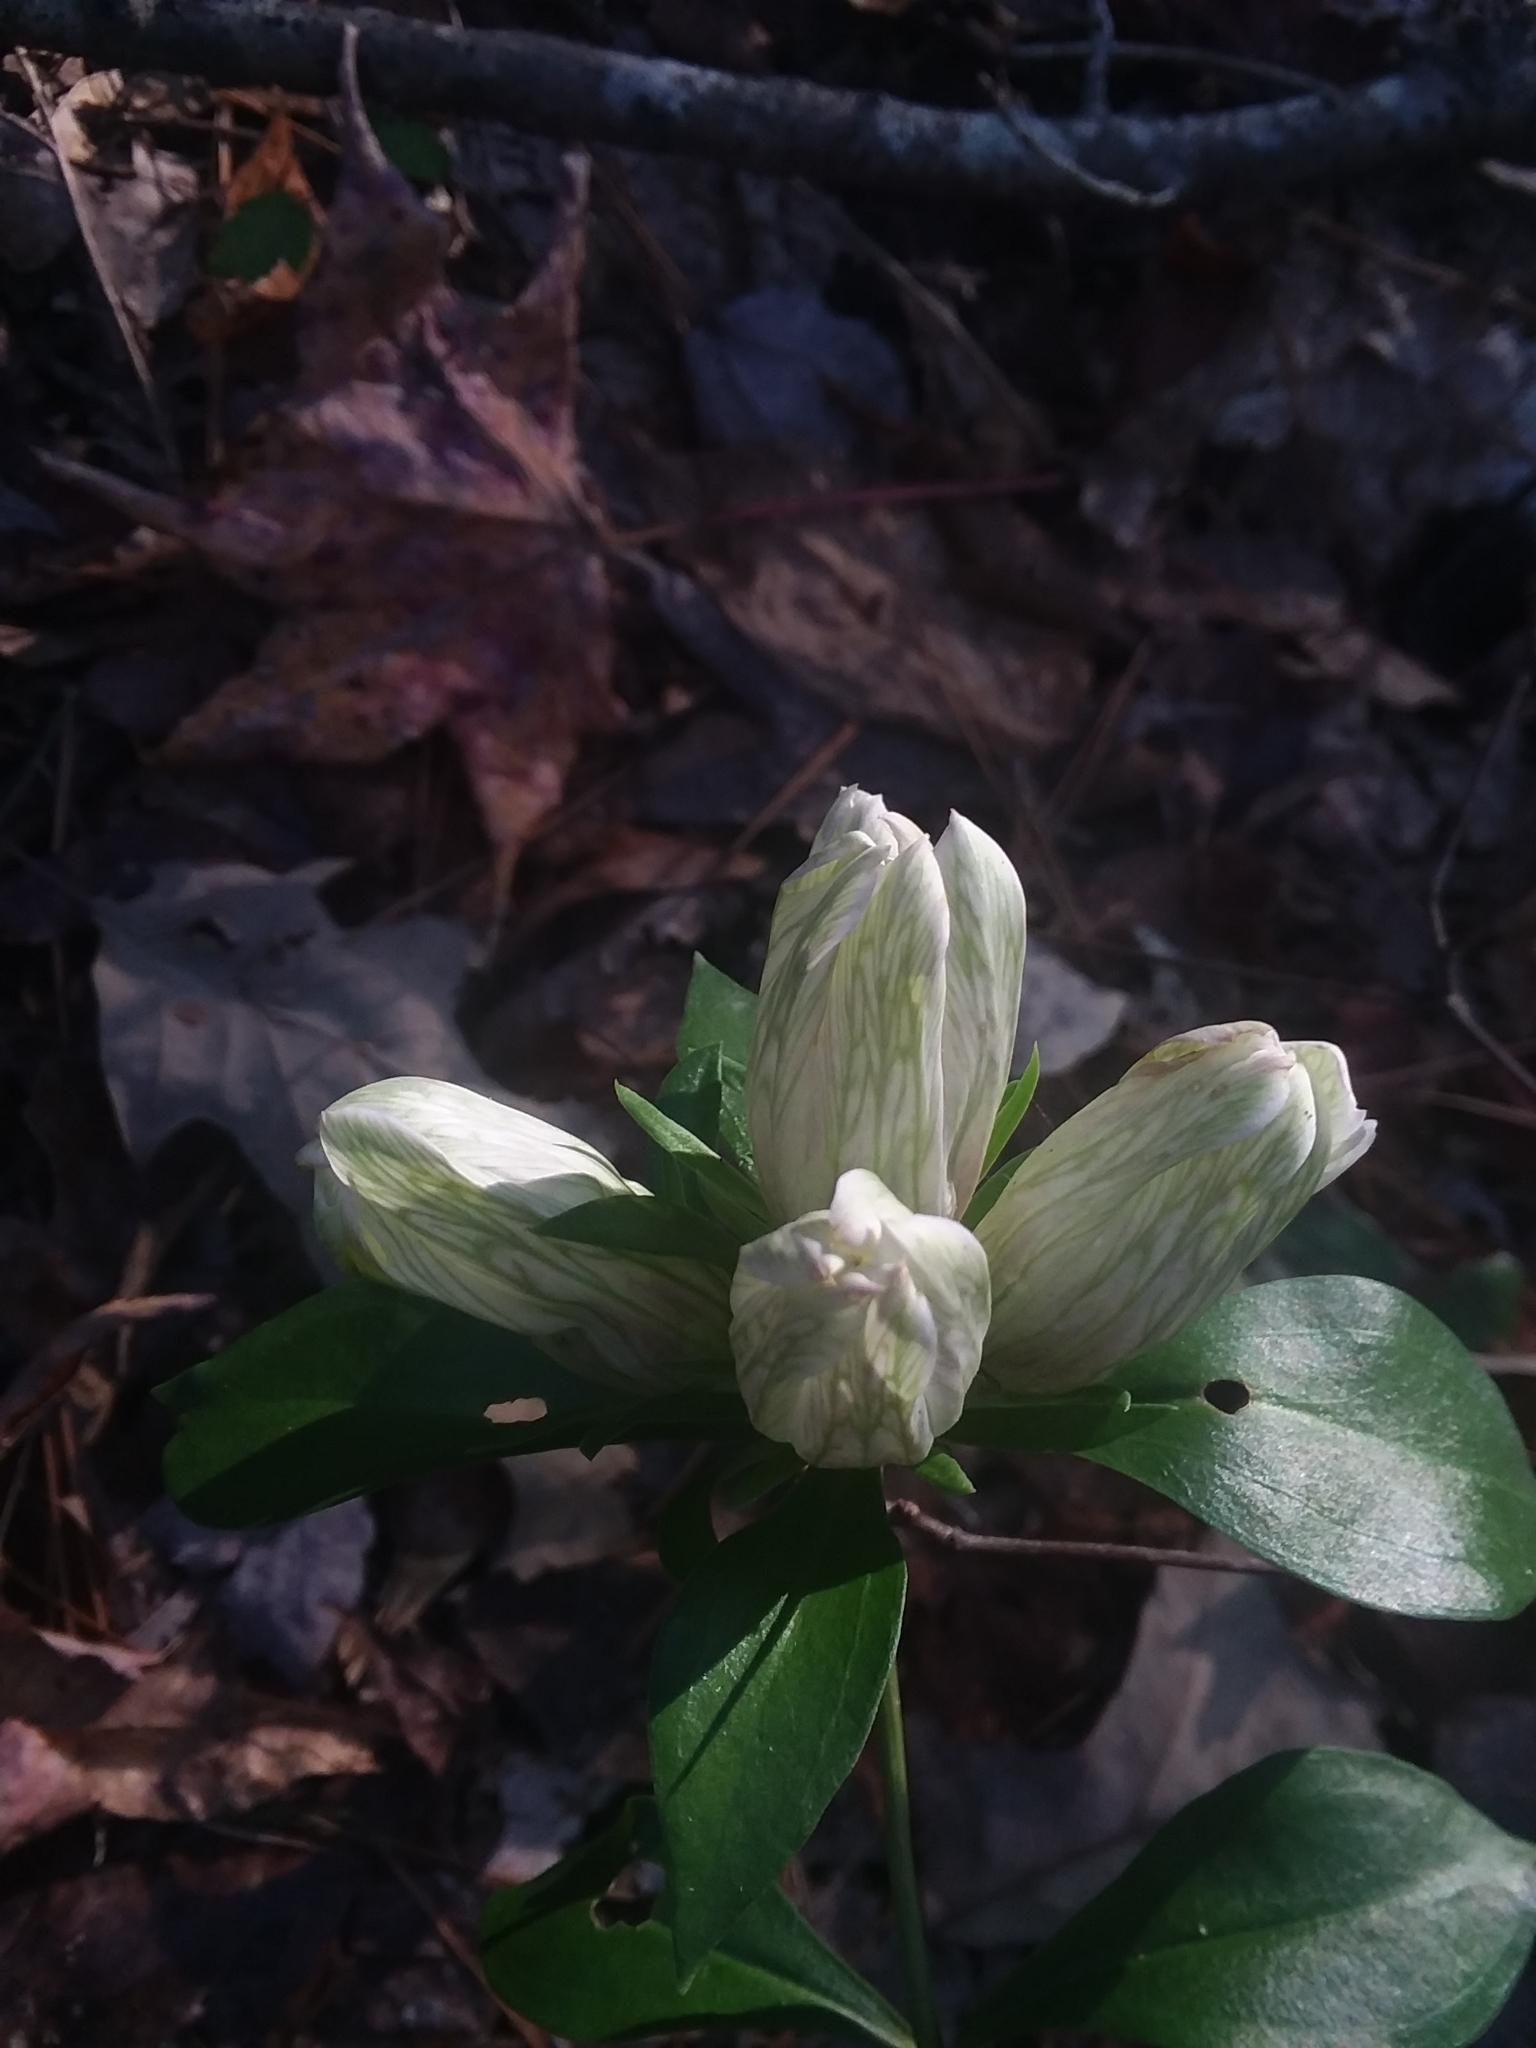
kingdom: Plantae
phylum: Tracheophyta
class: Magnoliopsida
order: Gentianales
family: Gentianaceae
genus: Gentiana
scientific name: Gentiana villosa
